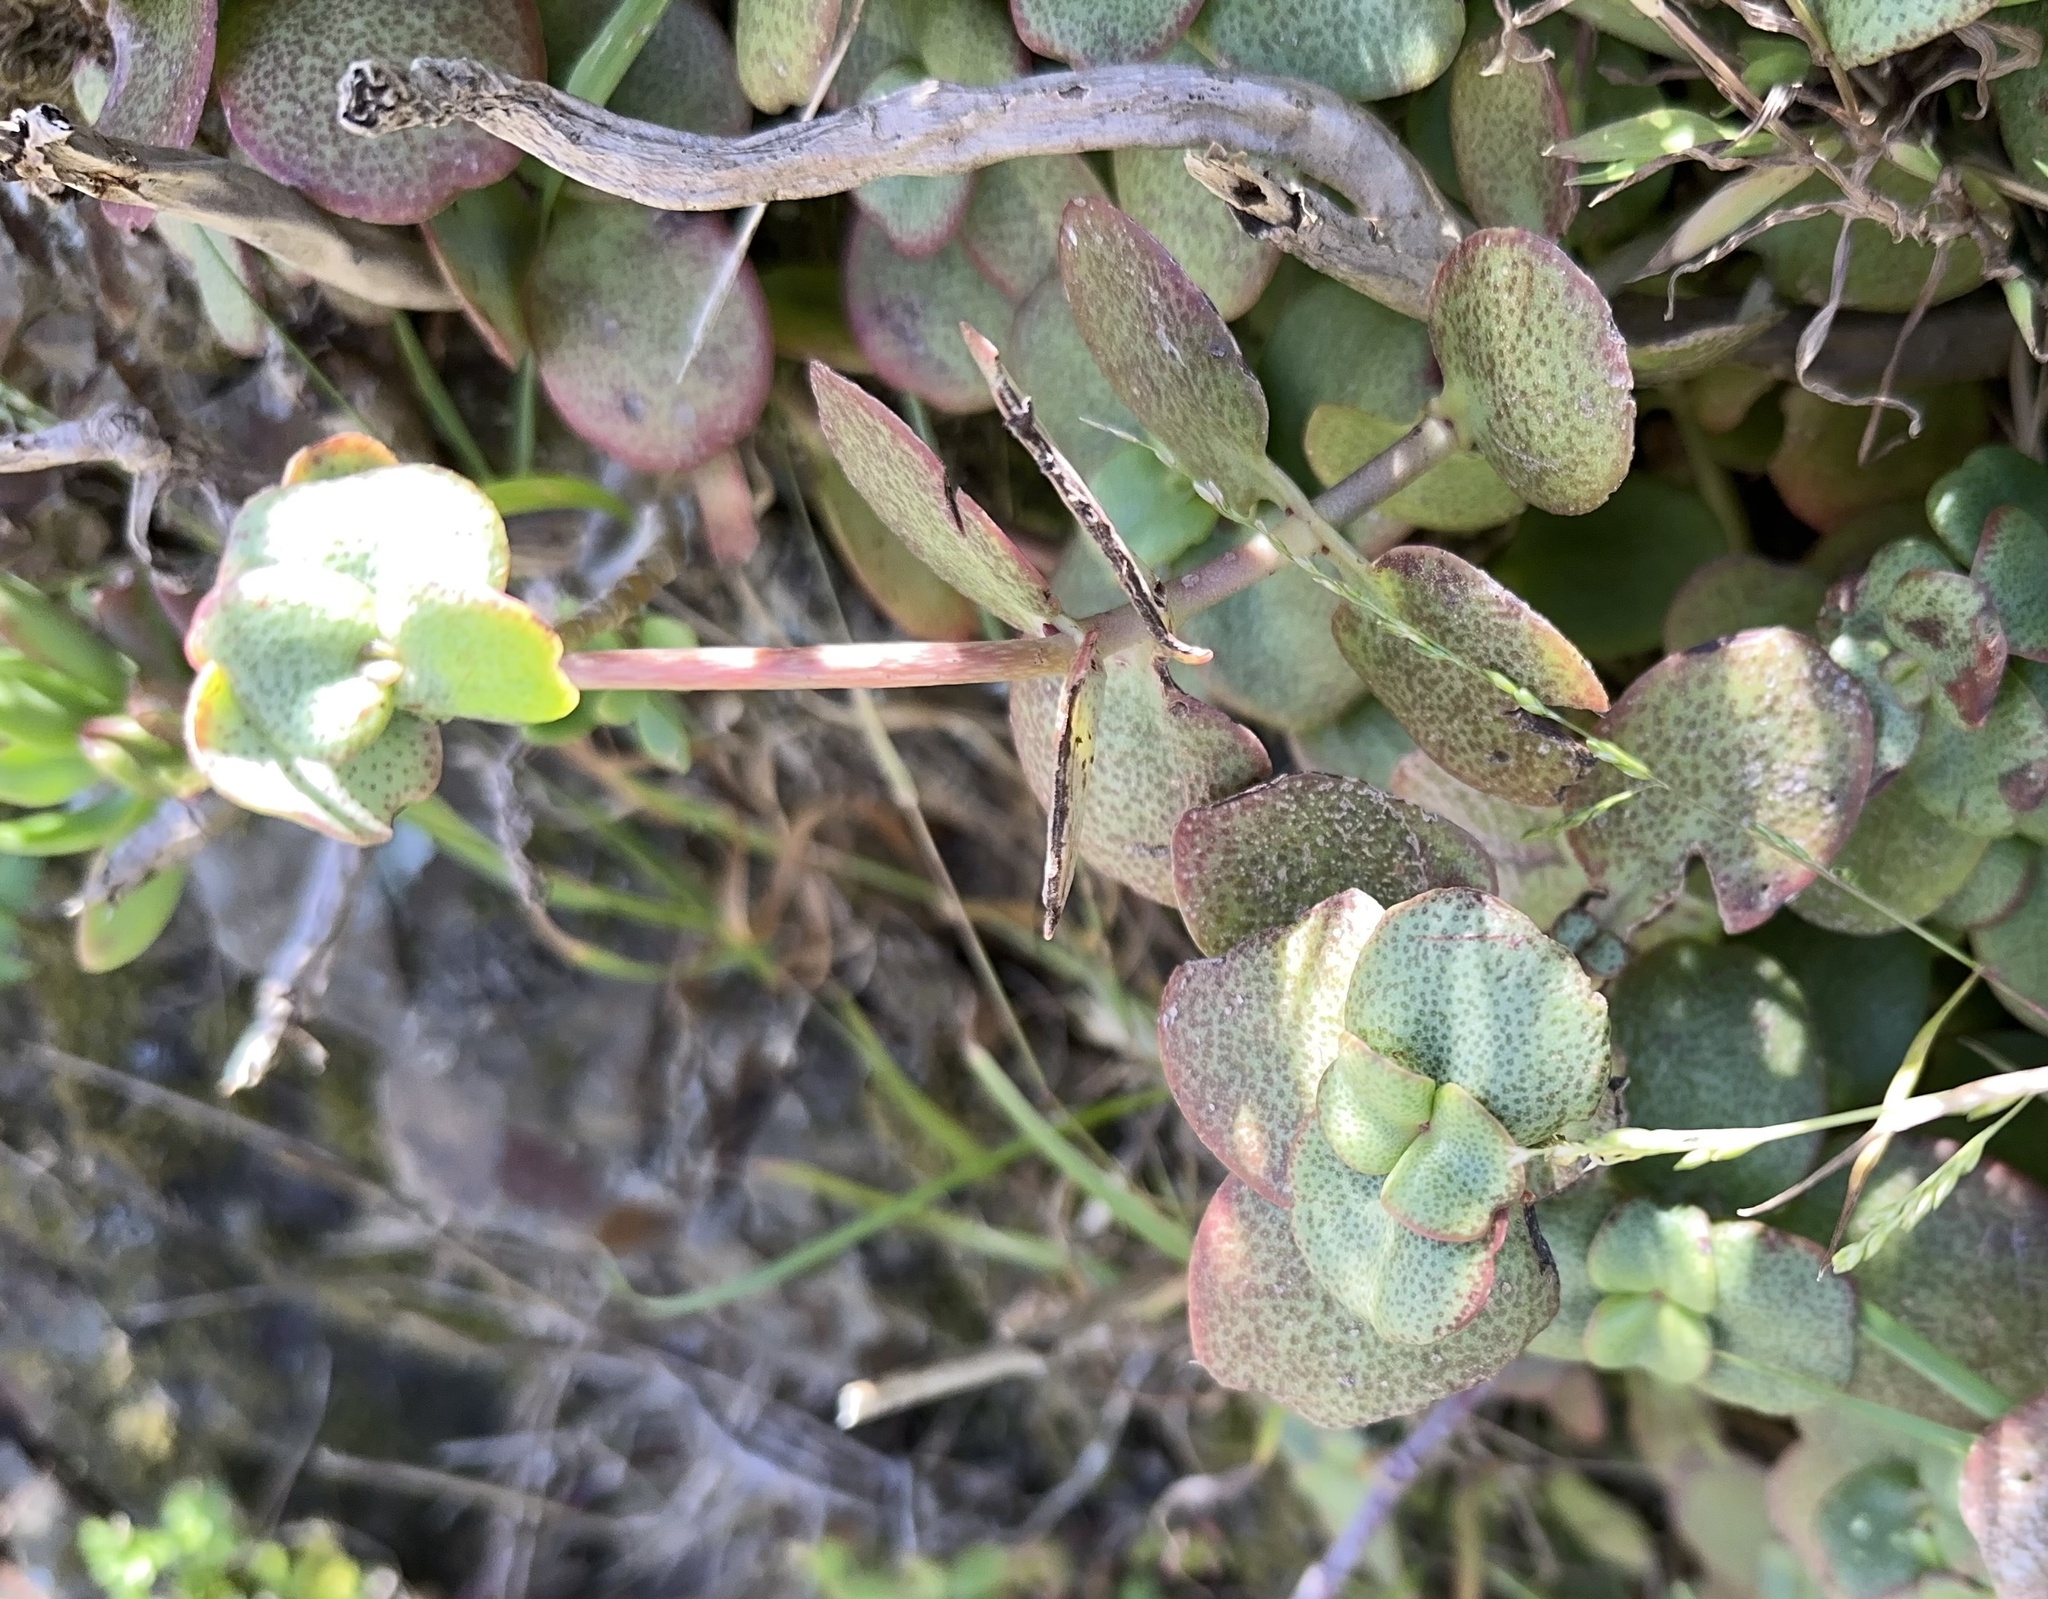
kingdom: Plantae
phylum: Tracheophyta
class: Magnoliopsida
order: Saxifragales
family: Crassulaceae
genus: Crassula
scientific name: Crassula multicava
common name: Cape province pygmyweed
